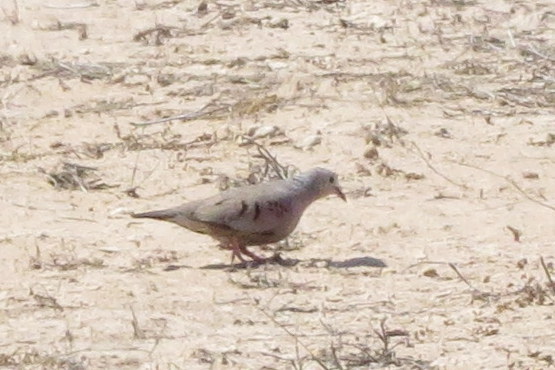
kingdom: Animalia
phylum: Chordata
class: Aves
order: Columbiformes
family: Columbidae
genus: Columbina
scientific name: Columbina passerina
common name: Common ground-dove
